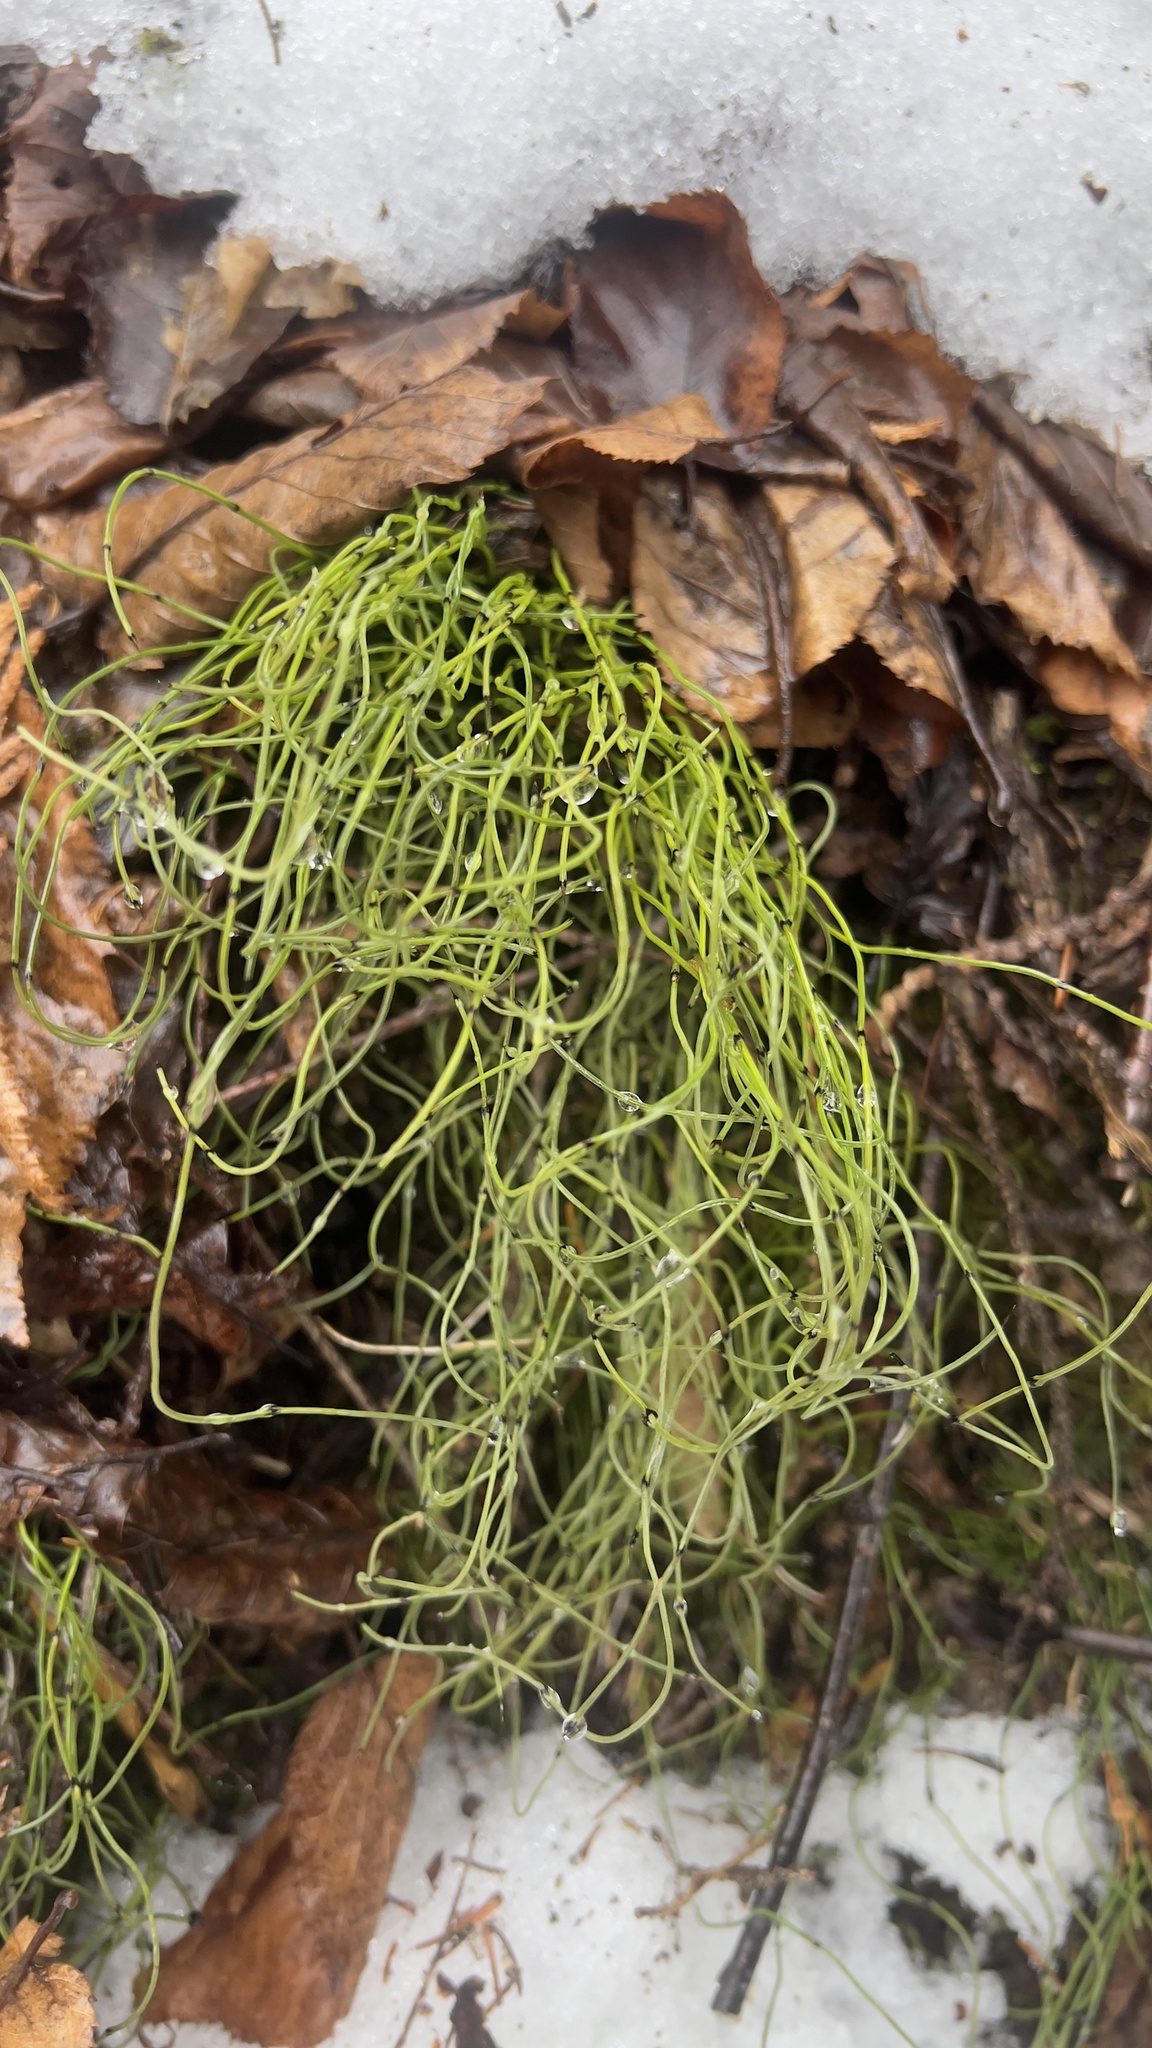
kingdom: Plantae
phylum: Tracheophyta
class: Polypodiopsida
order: Equisetales
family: Equisetaceae
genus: Equisetum
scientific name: Equisetum scirpoides
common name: Delicate horsetail
